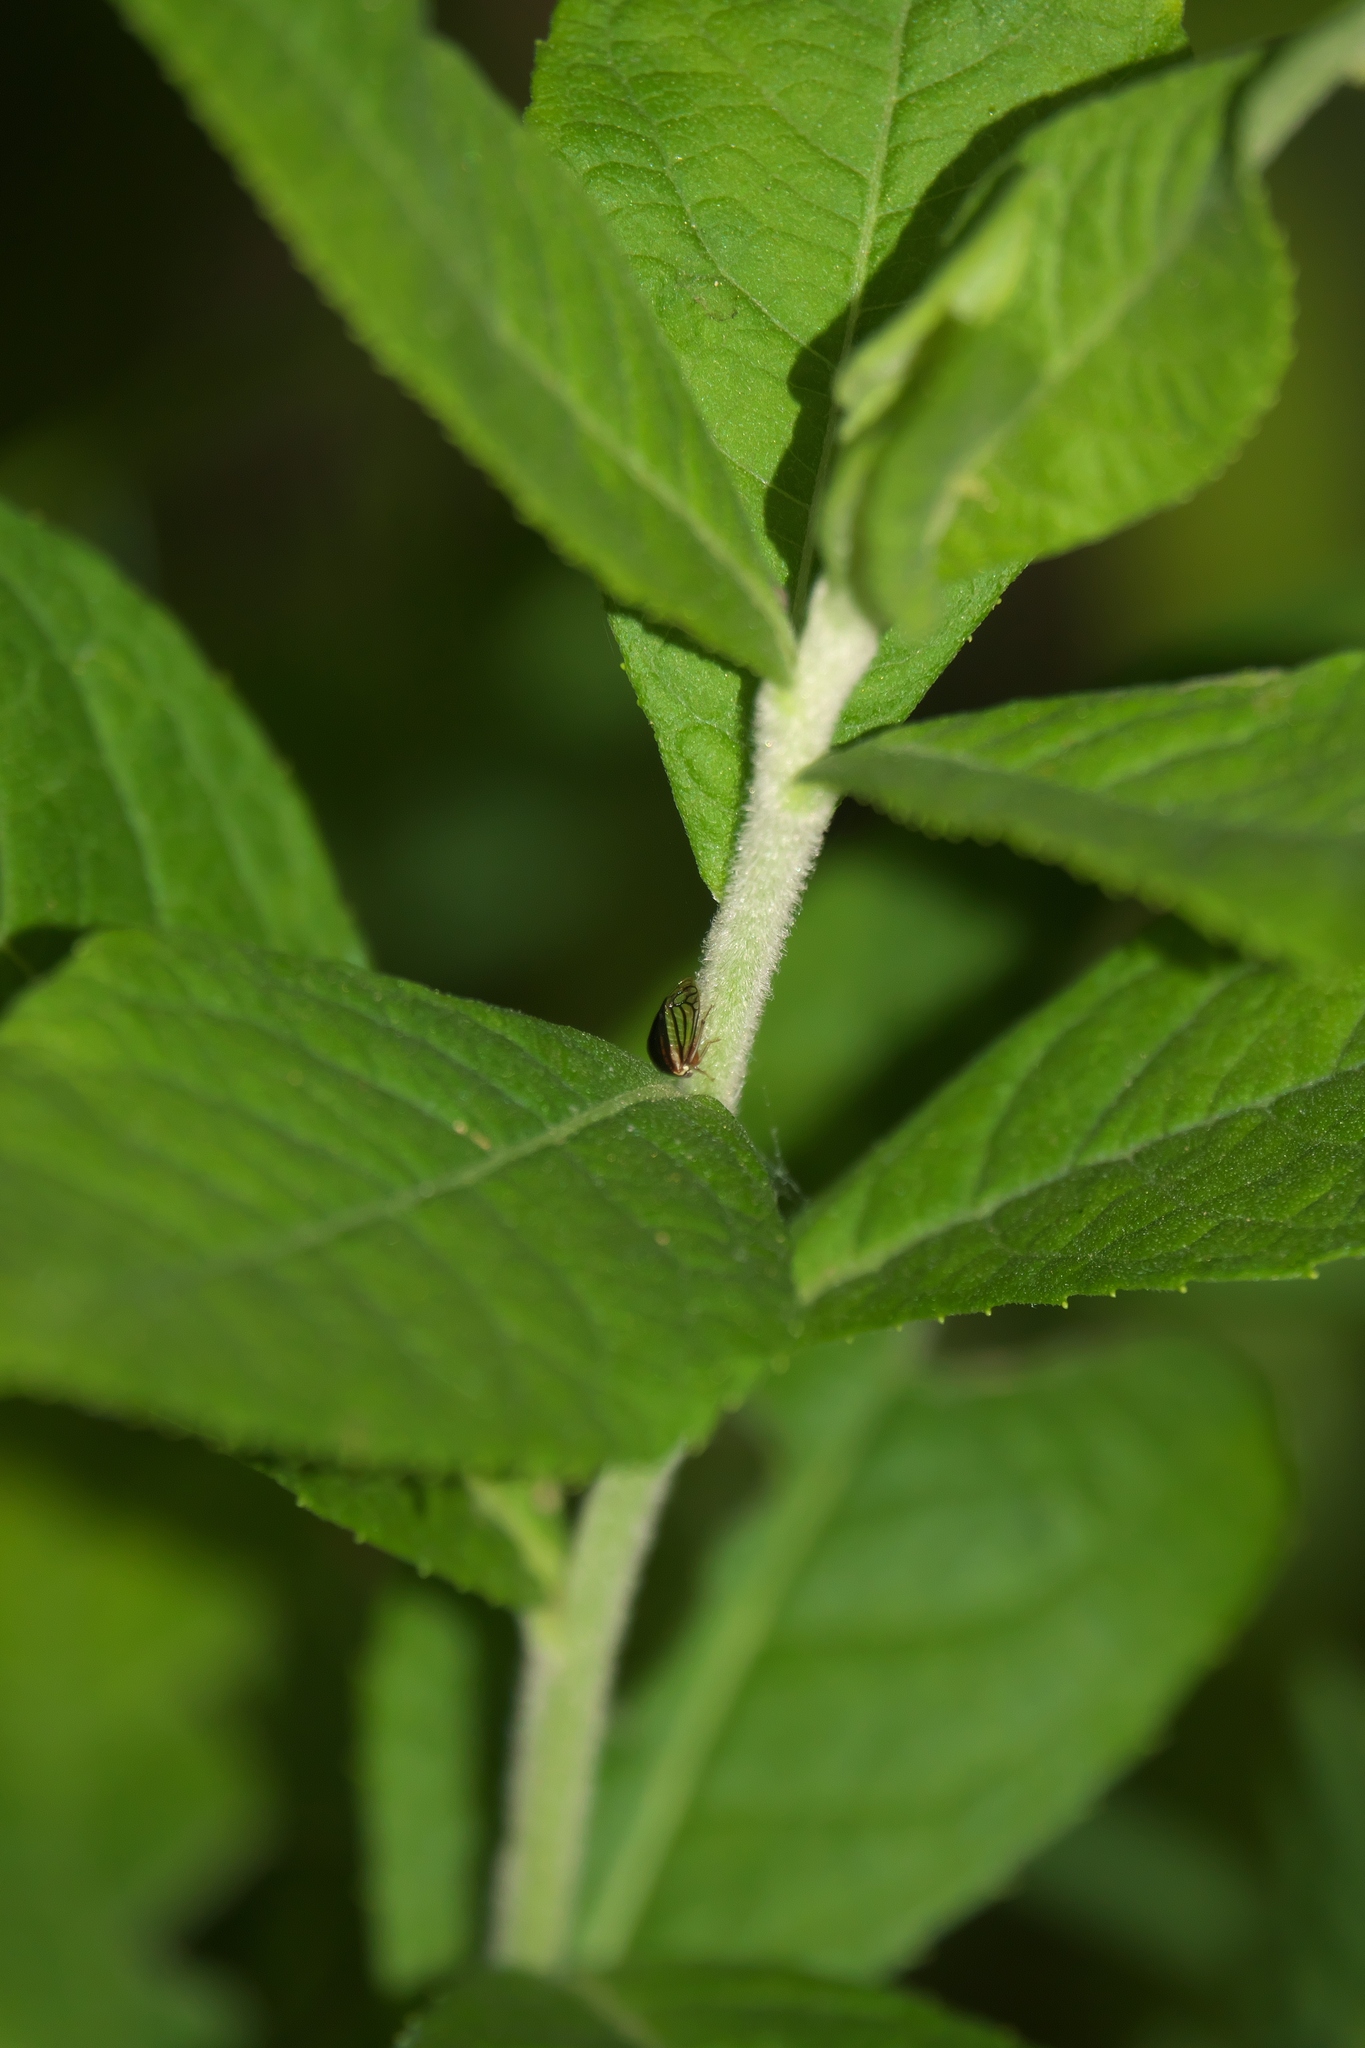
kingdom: Animalia
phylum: Arthropoda
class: Insecta
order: Hemiptera
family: Membracidae
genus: Acutalis
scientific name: Acutalis tartarea
